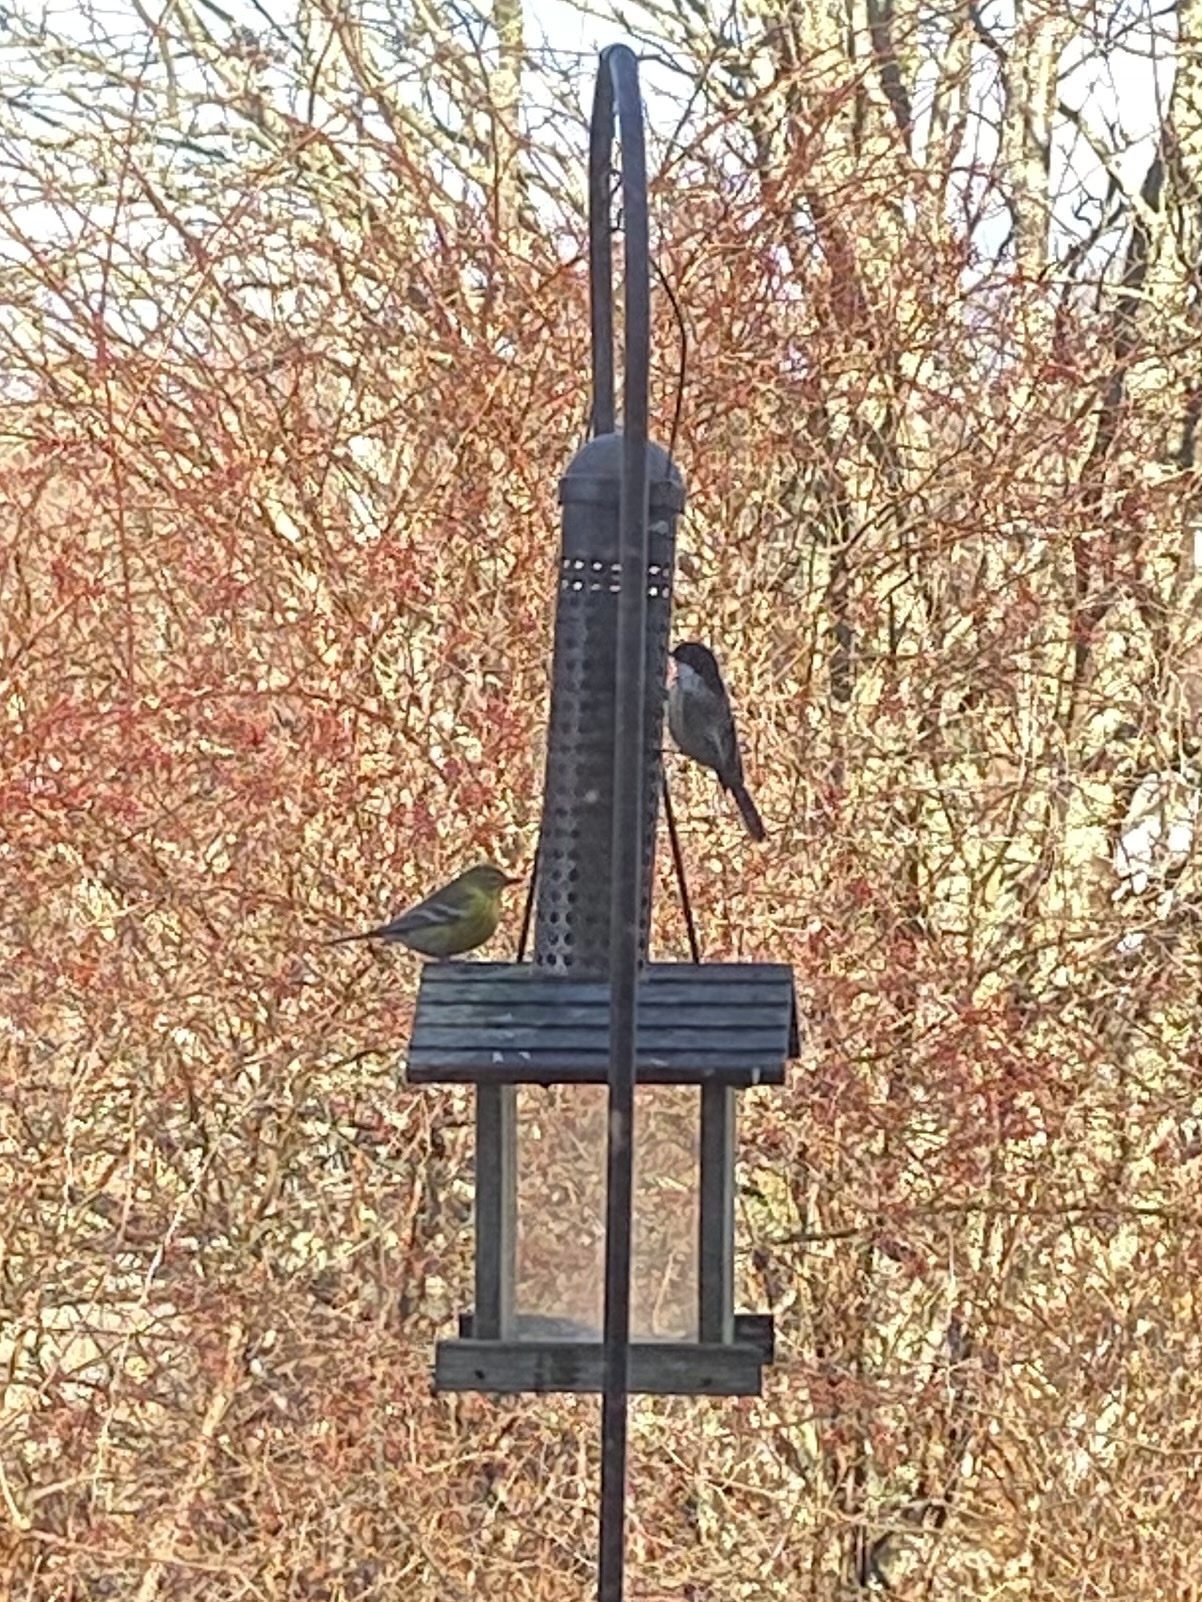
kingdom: Animalia
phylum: Chordata
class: Aves
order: Passeriformes
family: Paridae
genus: Poecile
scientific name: Poecile atricapillus
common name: Black-capped chickadee
